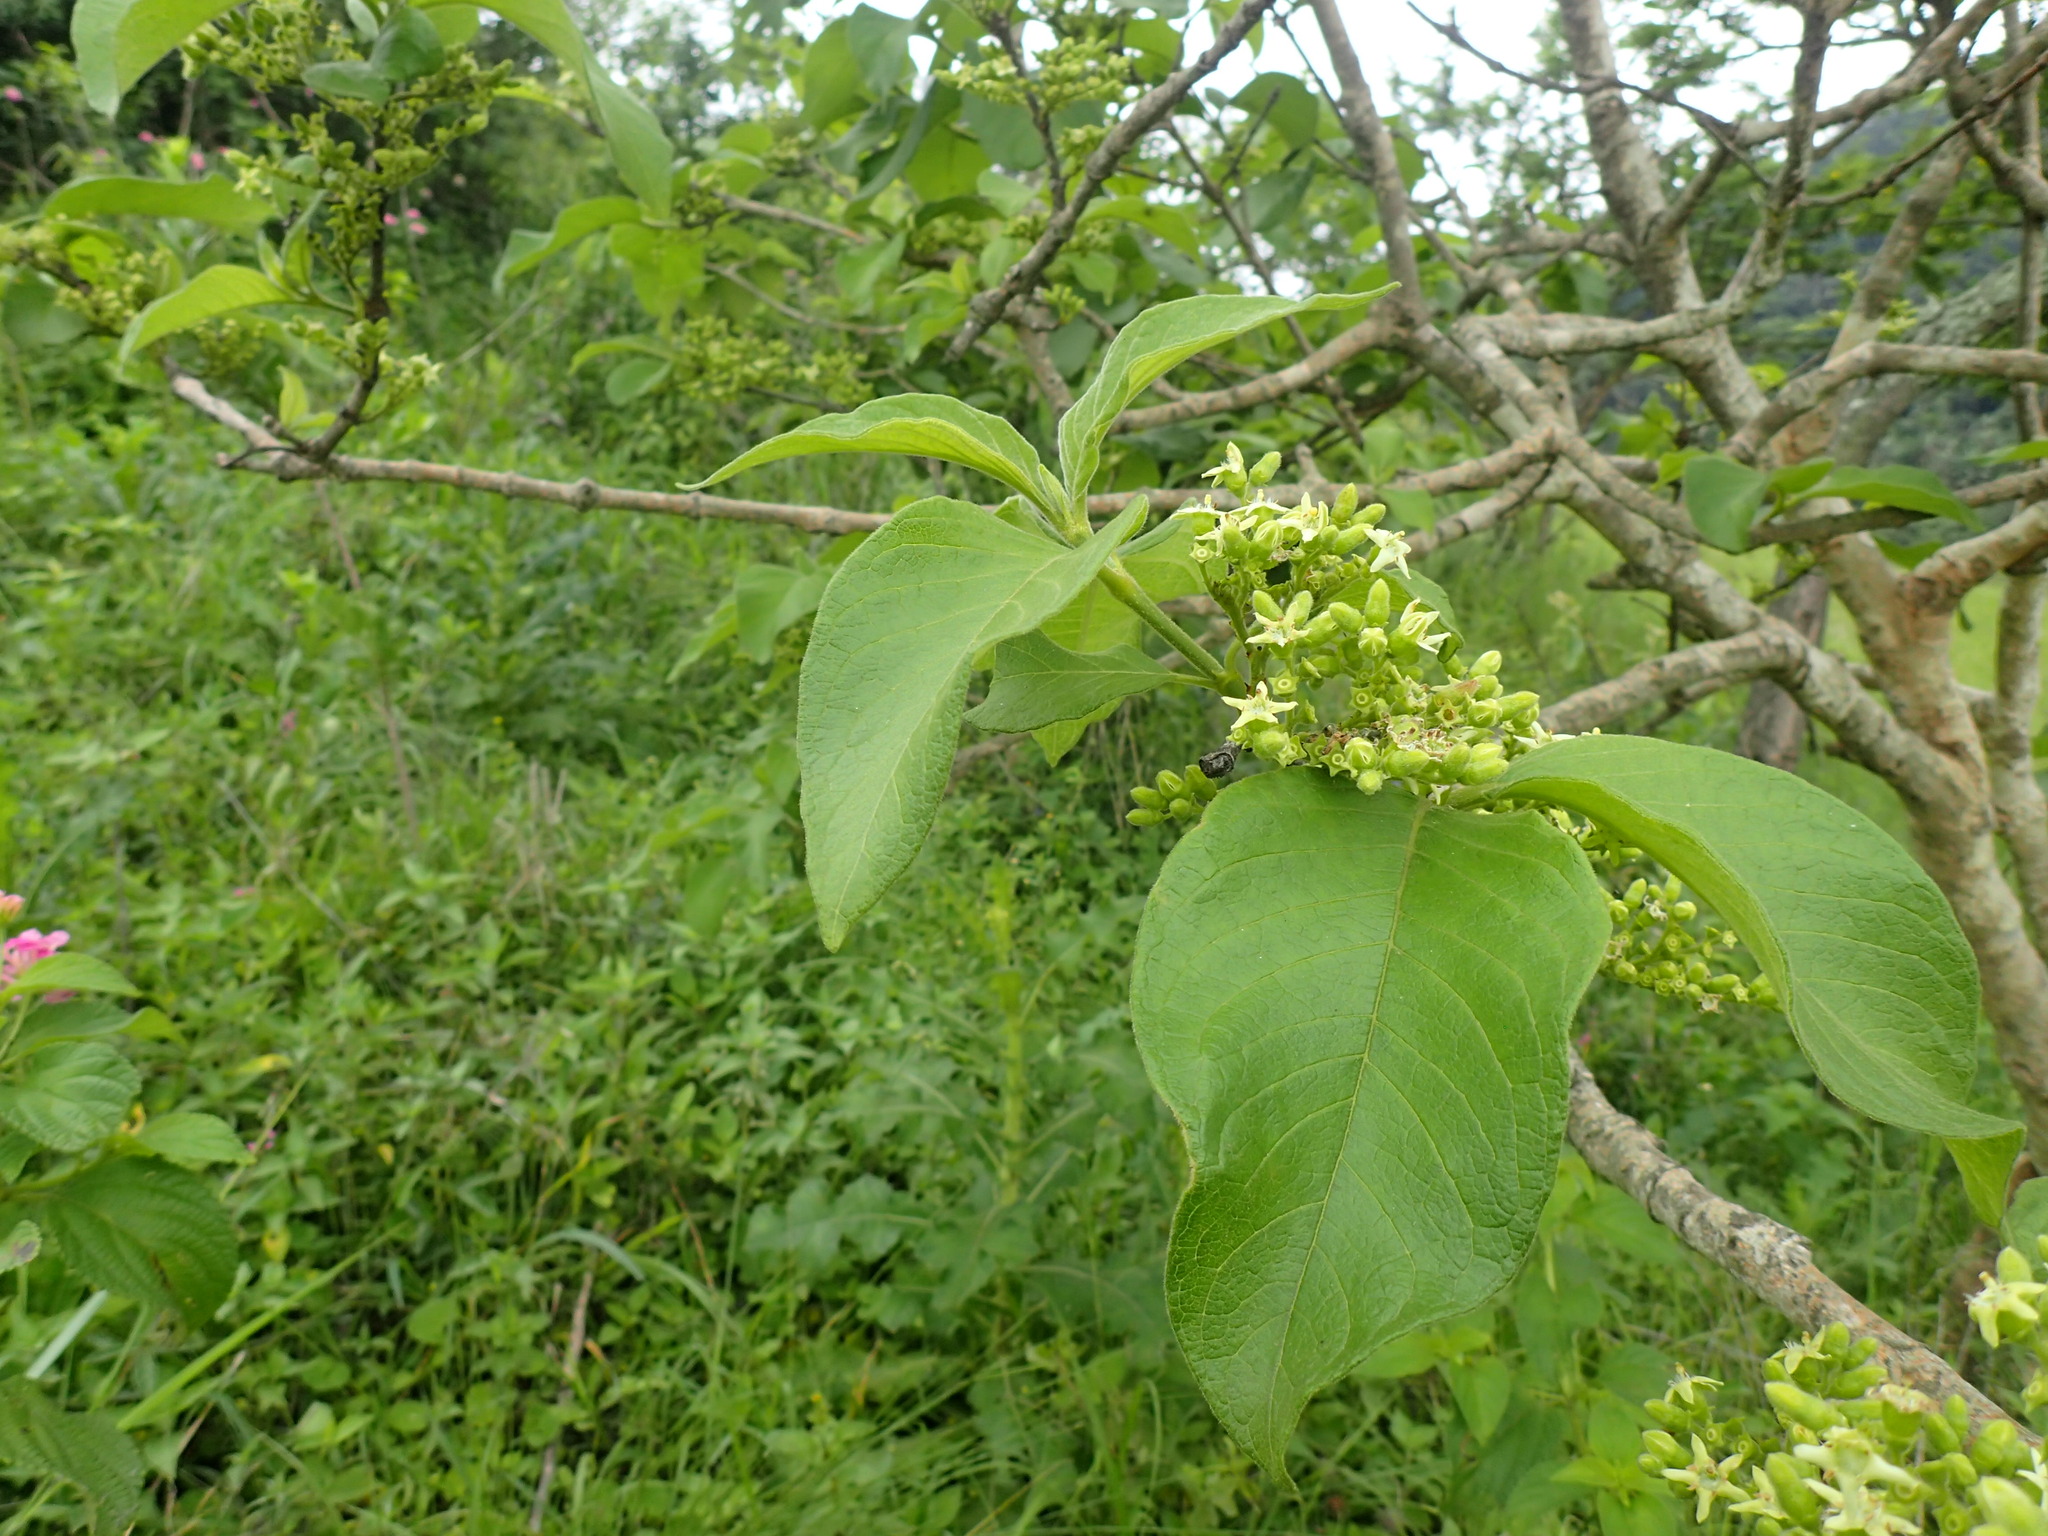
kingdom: Plantae
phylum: Tracheophyta
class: Magnoliopsida
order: Gentianales
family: Rubiaceae
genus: Vangueria
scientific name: Vangueria infausta
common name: Medlar
